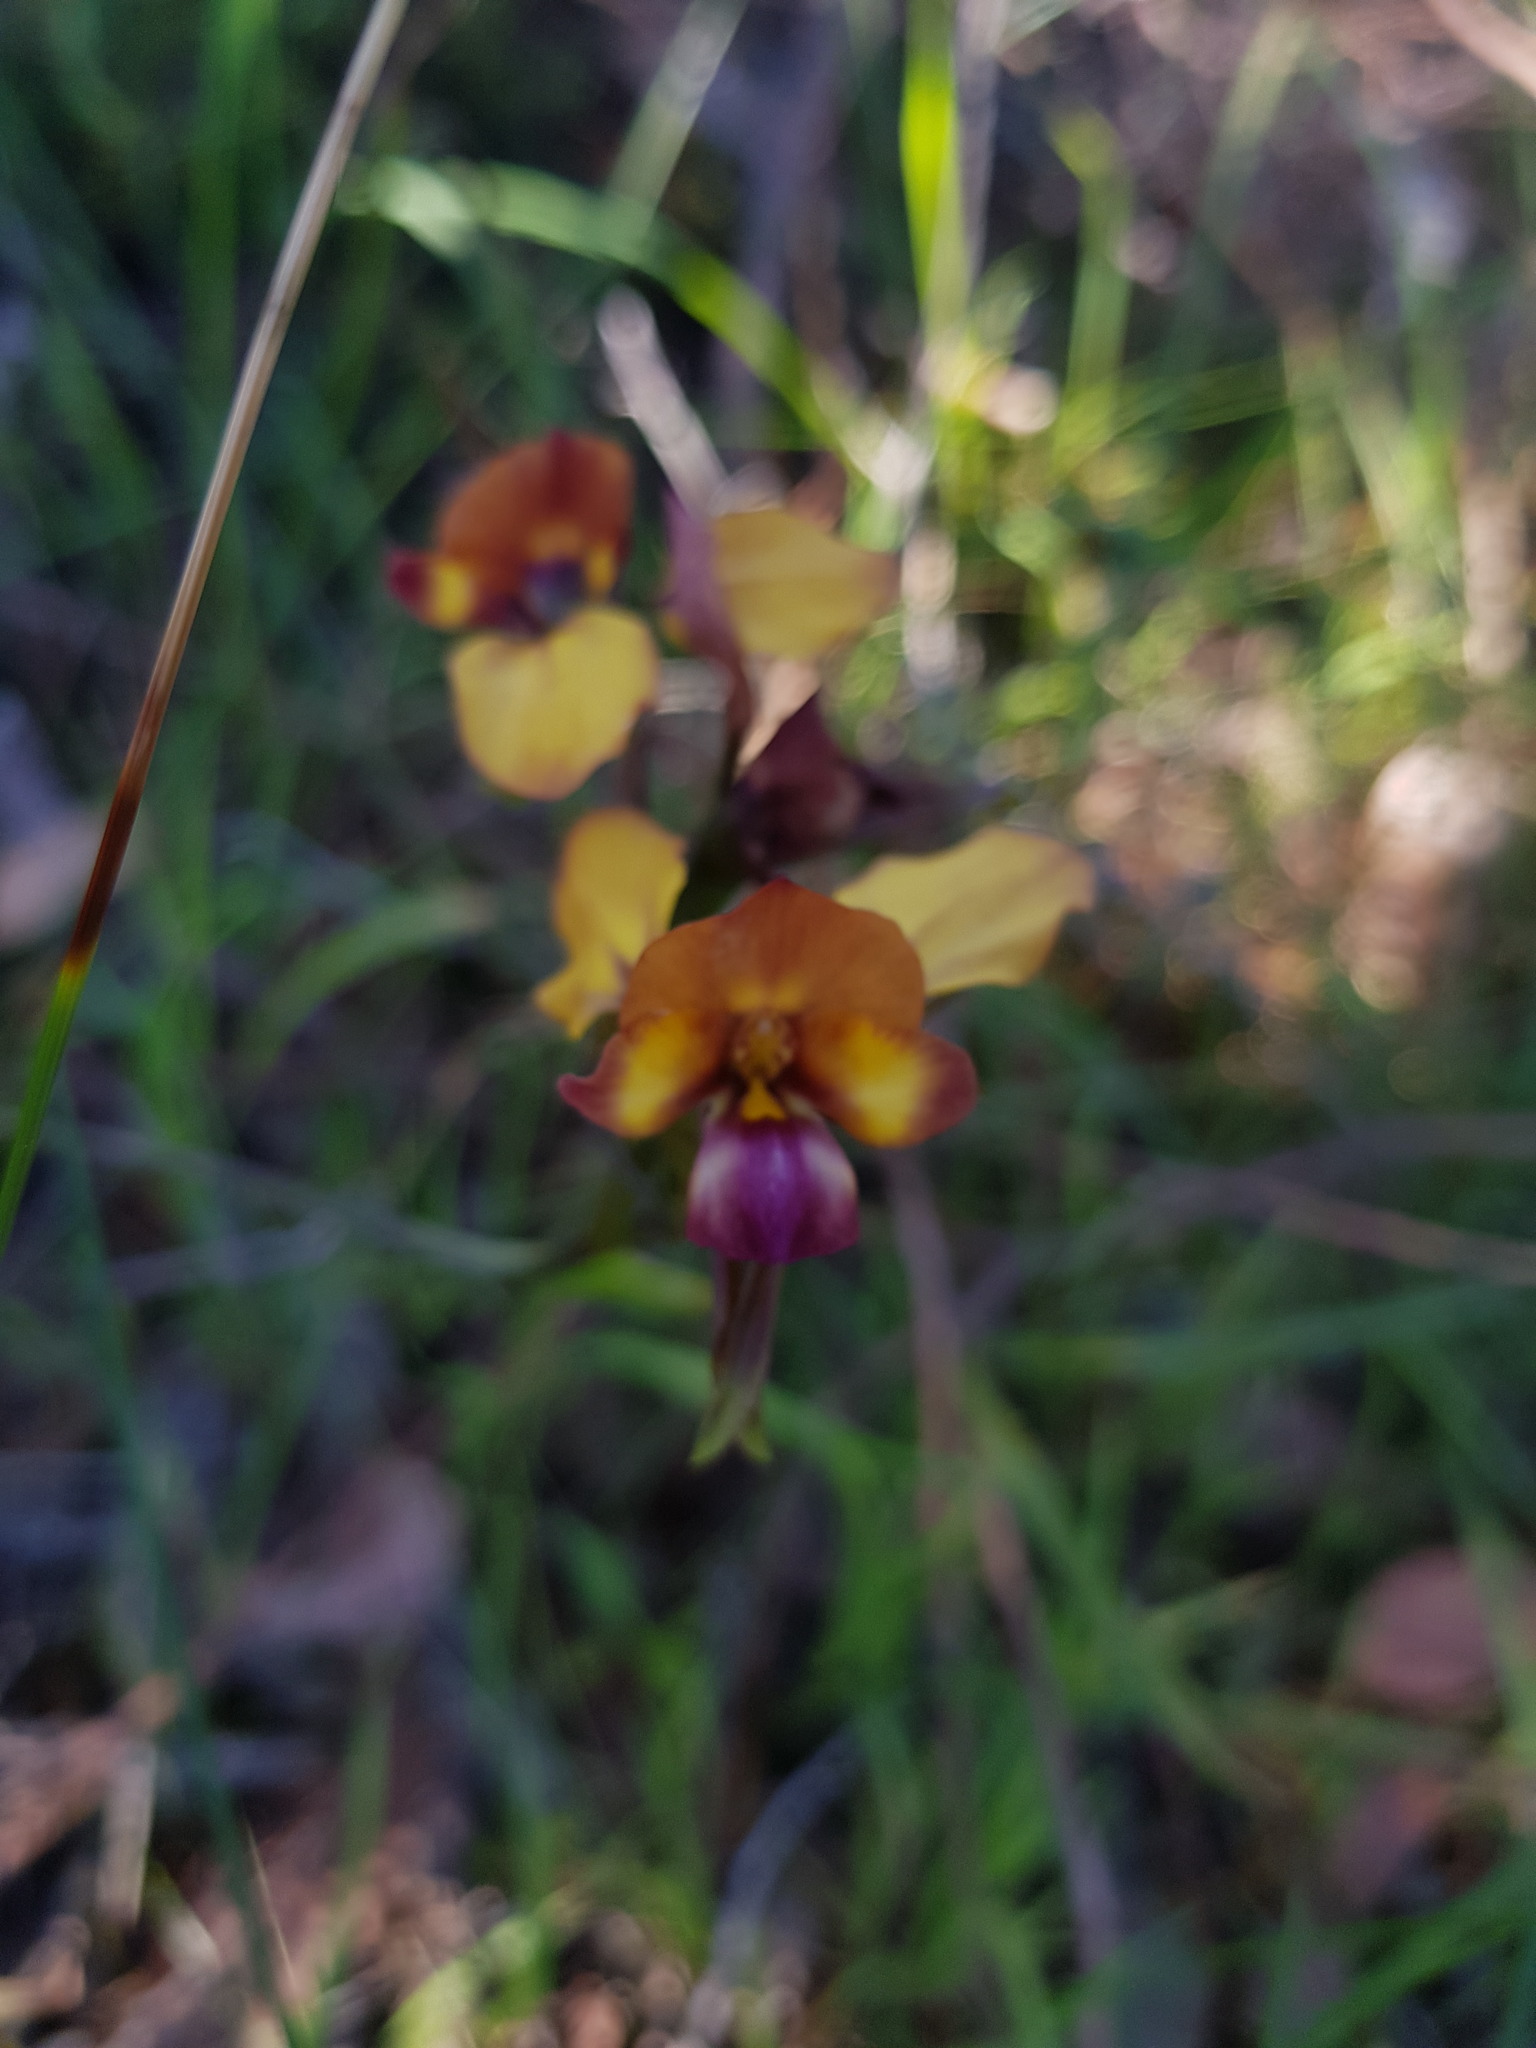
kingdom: Plantae
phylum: Tracheophyta
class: Liliopsida
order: Asparagales
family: Orchidaceae
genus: Diuris
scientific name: Diuris magnifica
